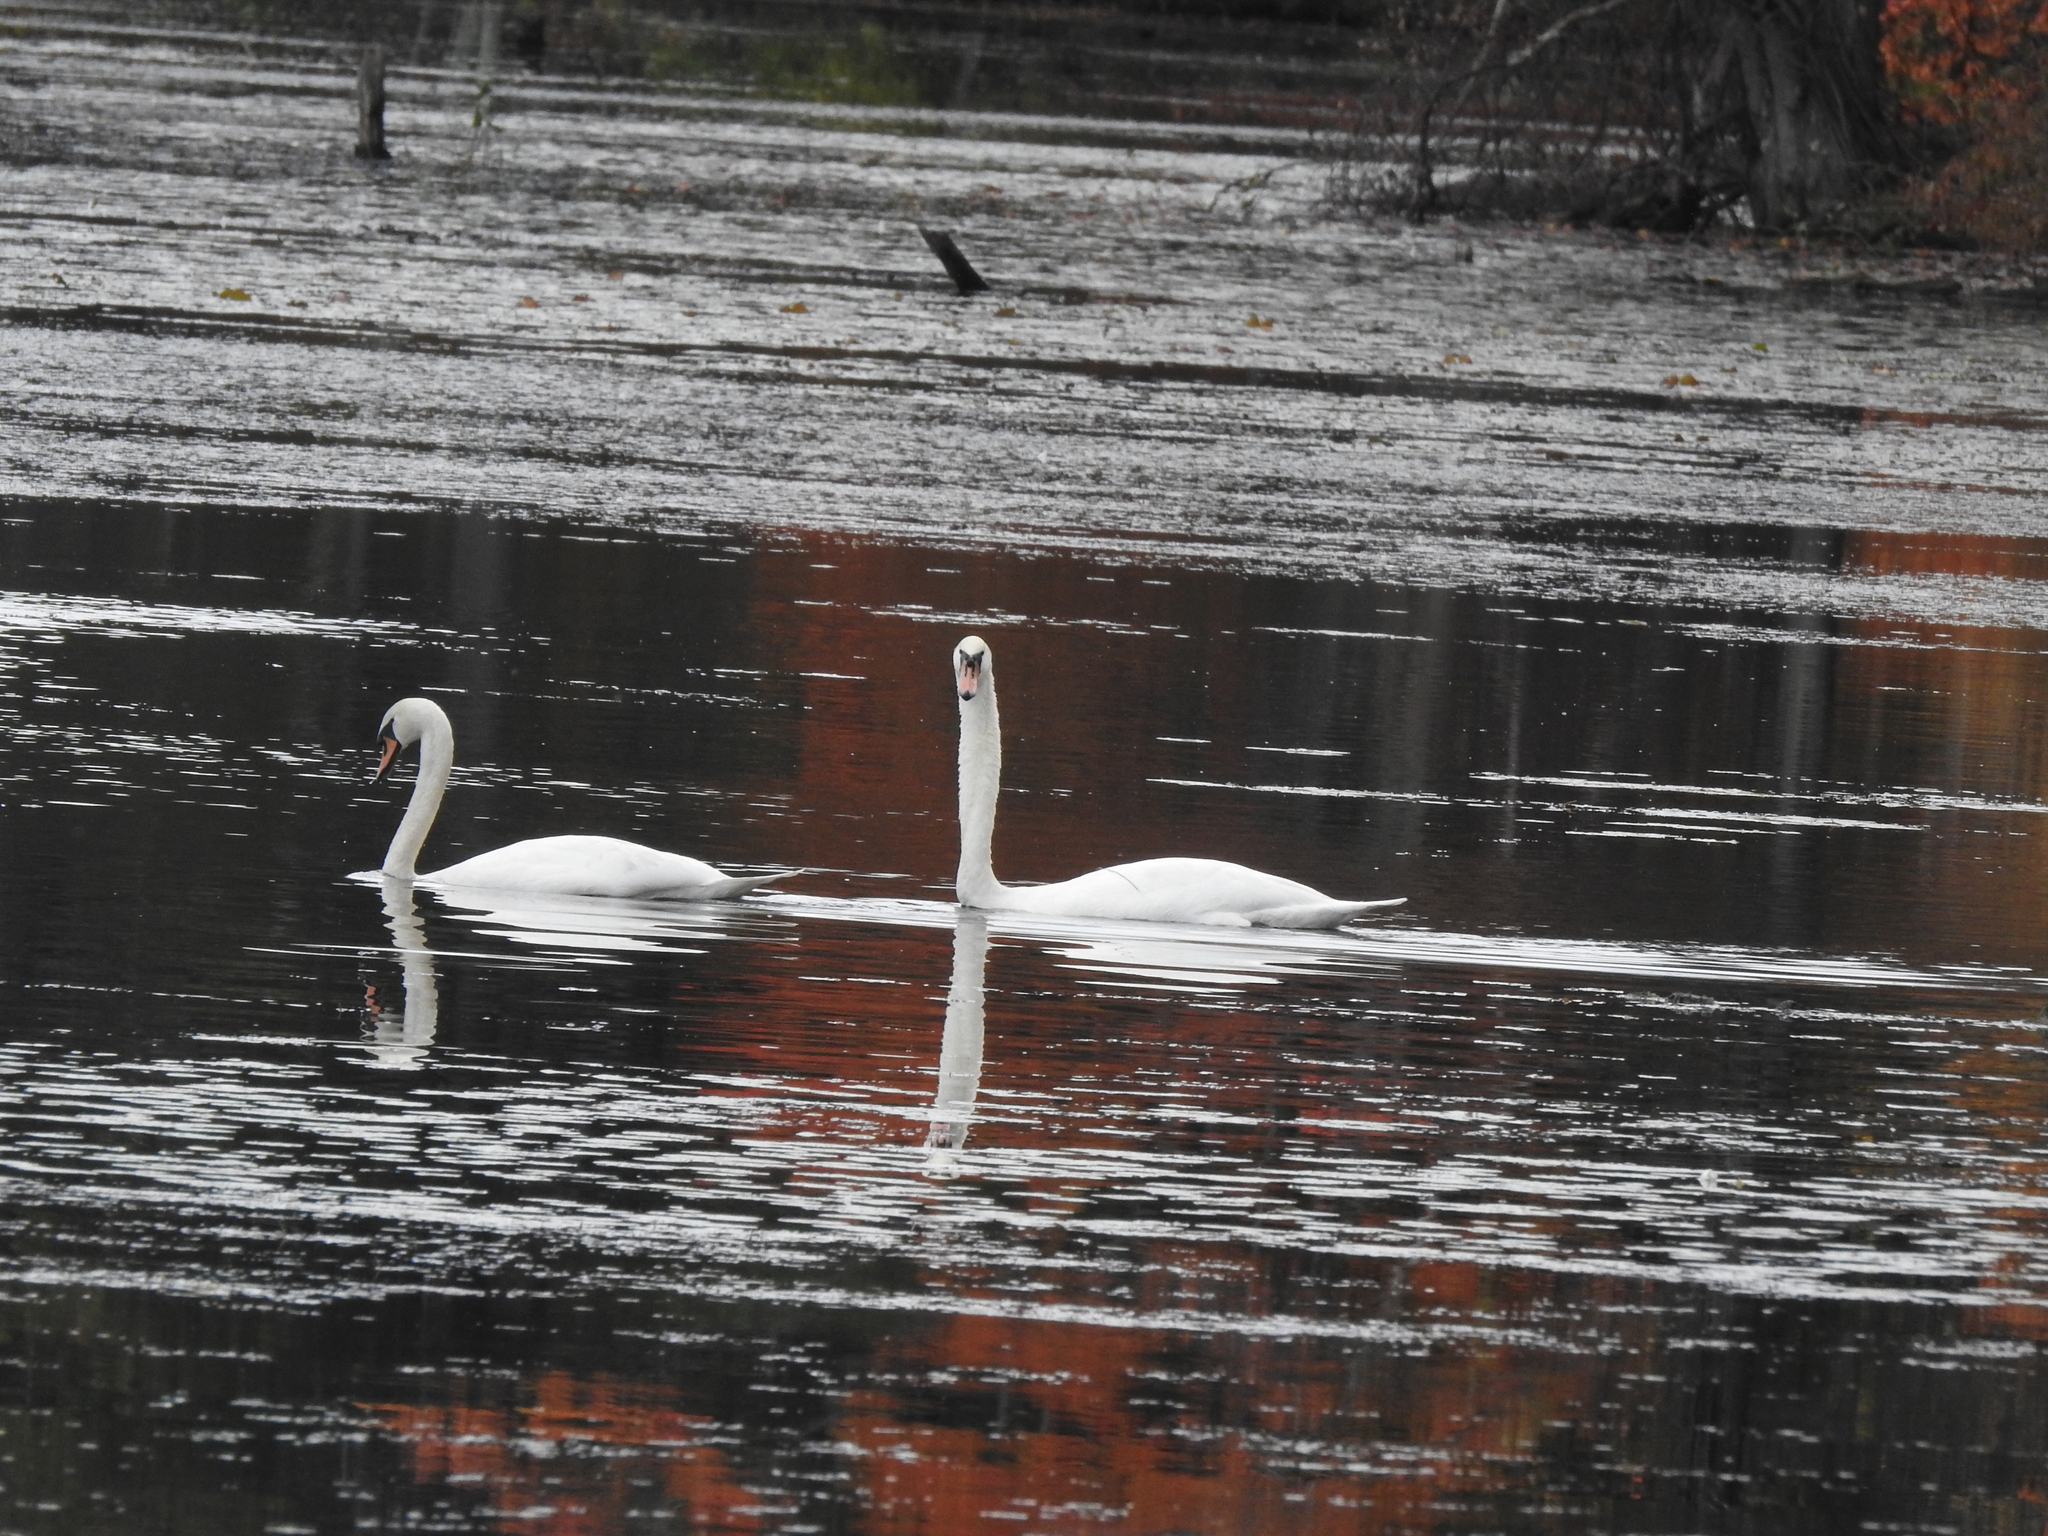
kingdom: Animalia
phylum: Chordata
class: Aves
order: Anseriformes
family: Anatidae
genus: Cygnus
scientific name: Cygnus olor
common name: Mute swan
